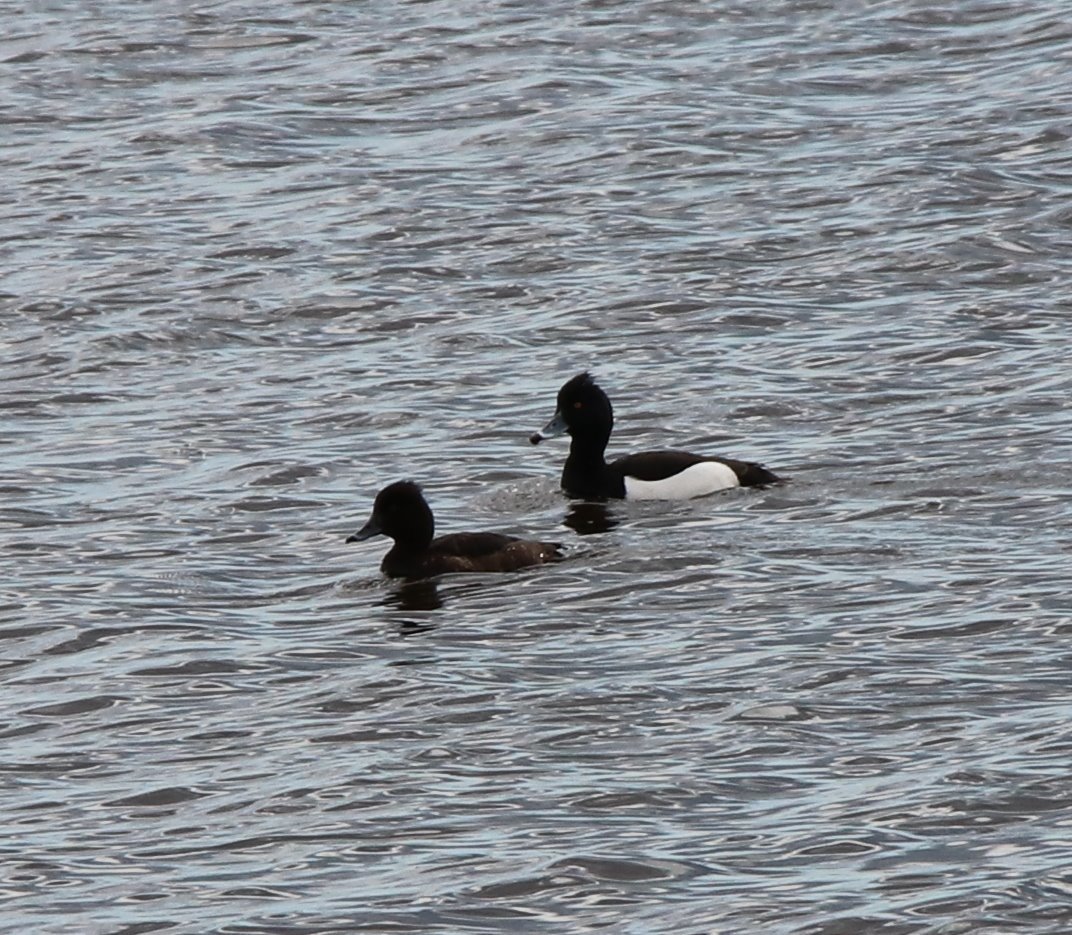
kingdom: Animalia
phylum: Chordata
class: Aves
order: Anseriformes
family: Anatidae
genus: Aythya
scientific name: Aythya fuligula
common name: Tufted duck
